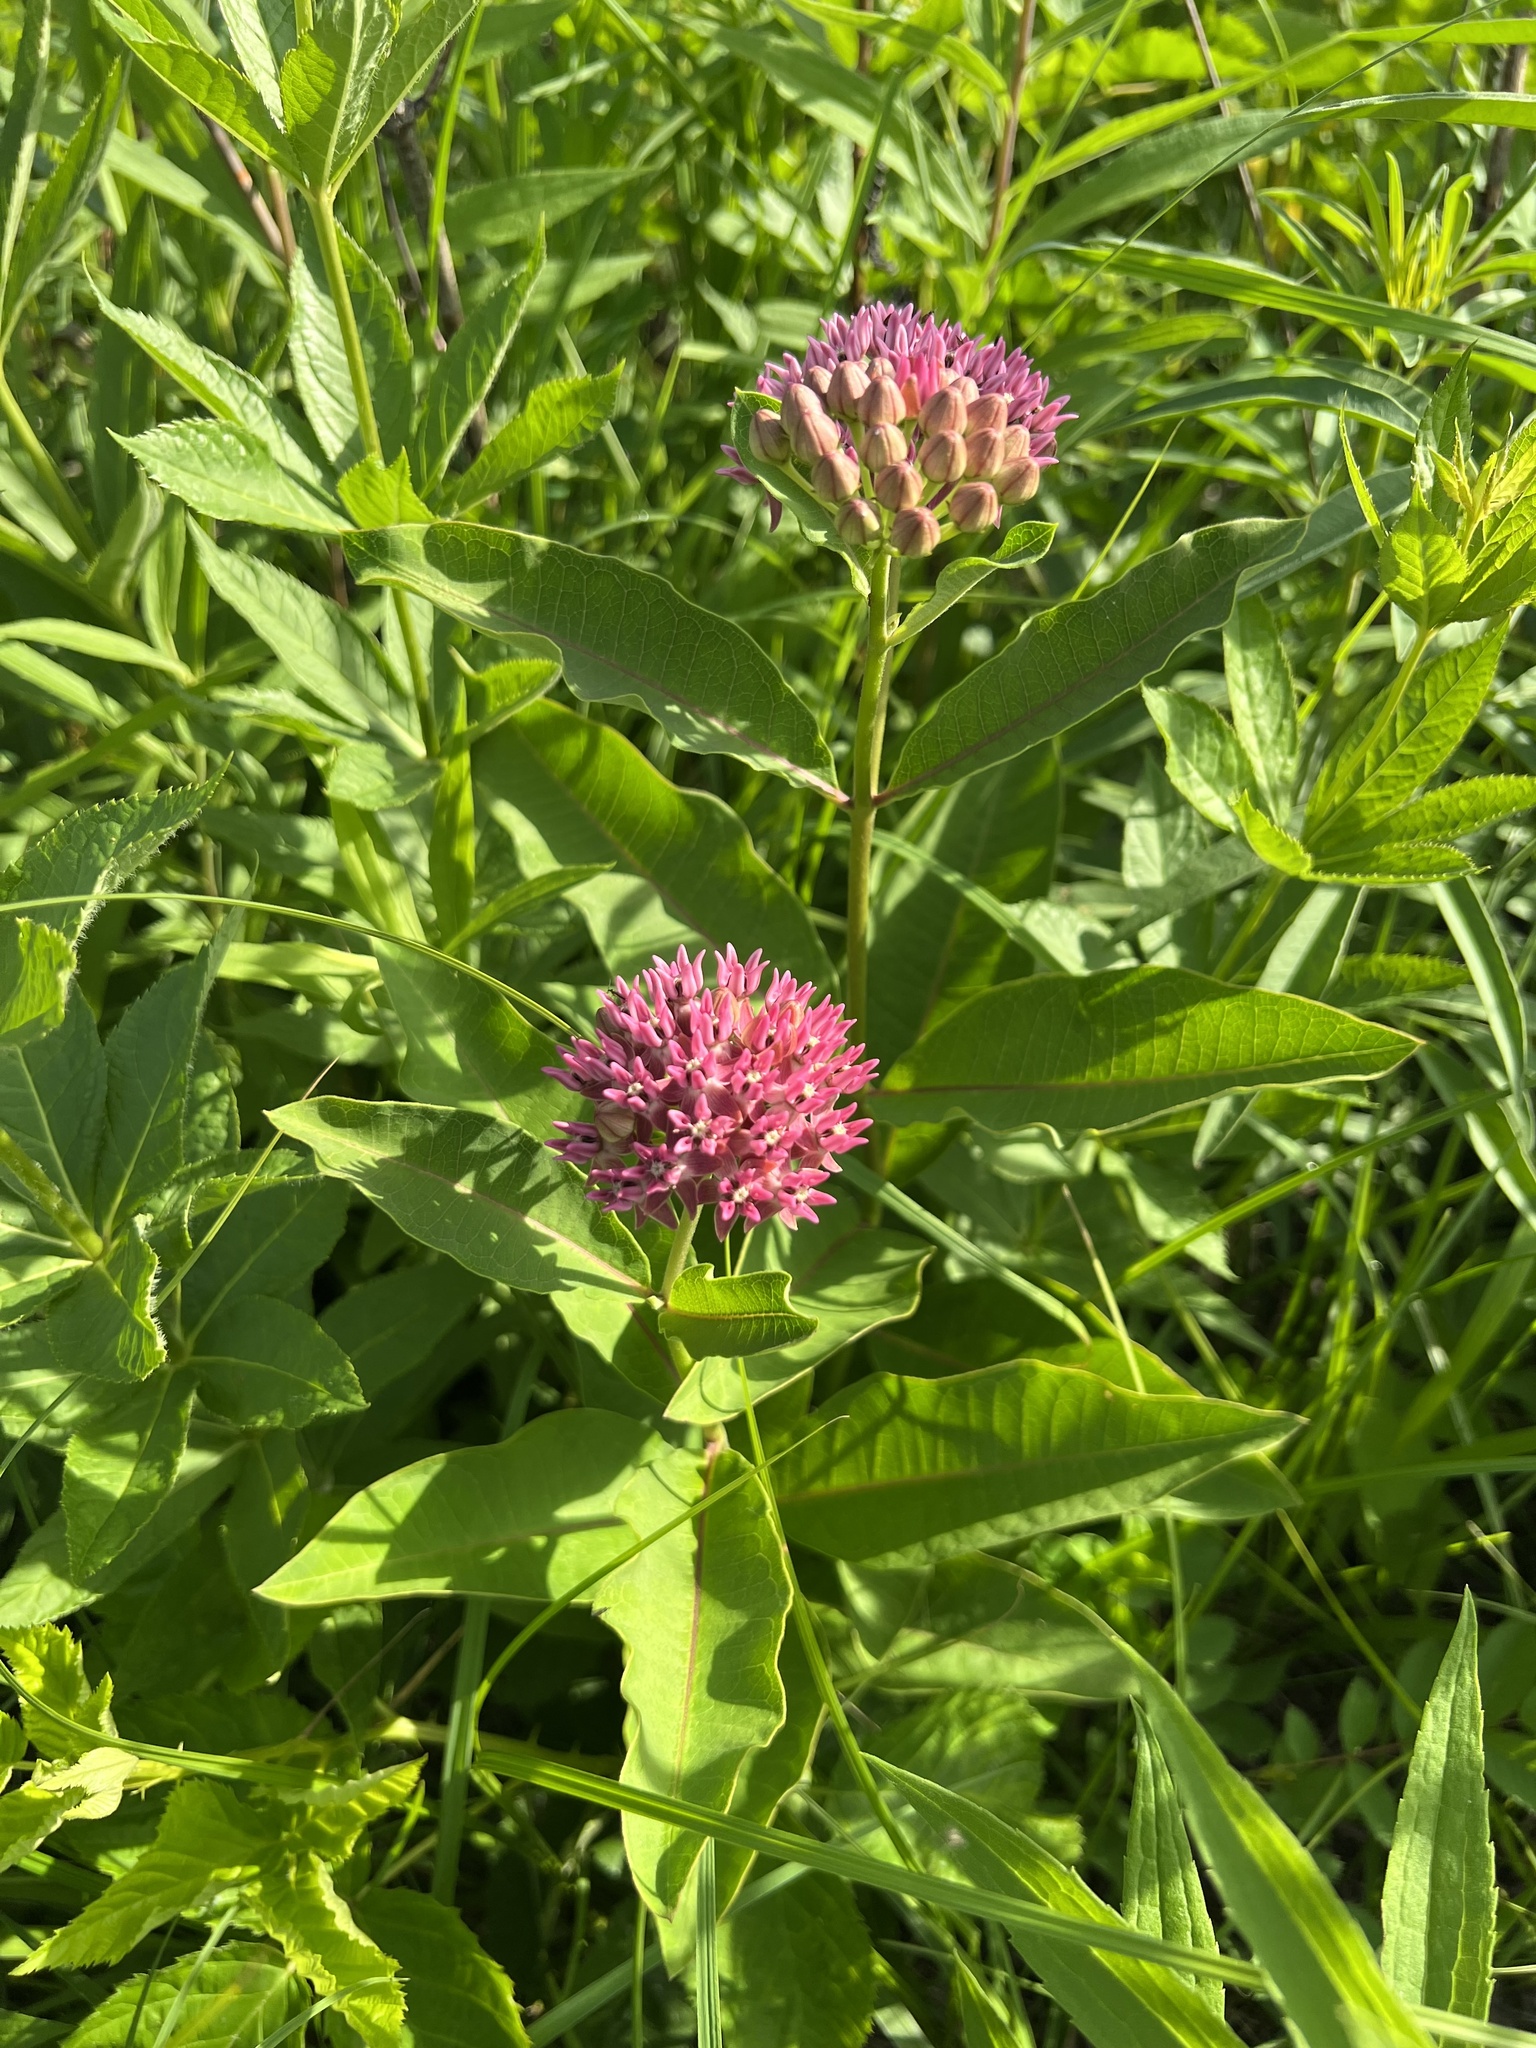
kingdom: Plantae
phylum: Tracheophyta
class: Magnoliopsida
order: Gentianales
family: Apocynaceae
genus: Asclepias
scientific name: Asclepias purpurascens
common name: Purple milkweed
